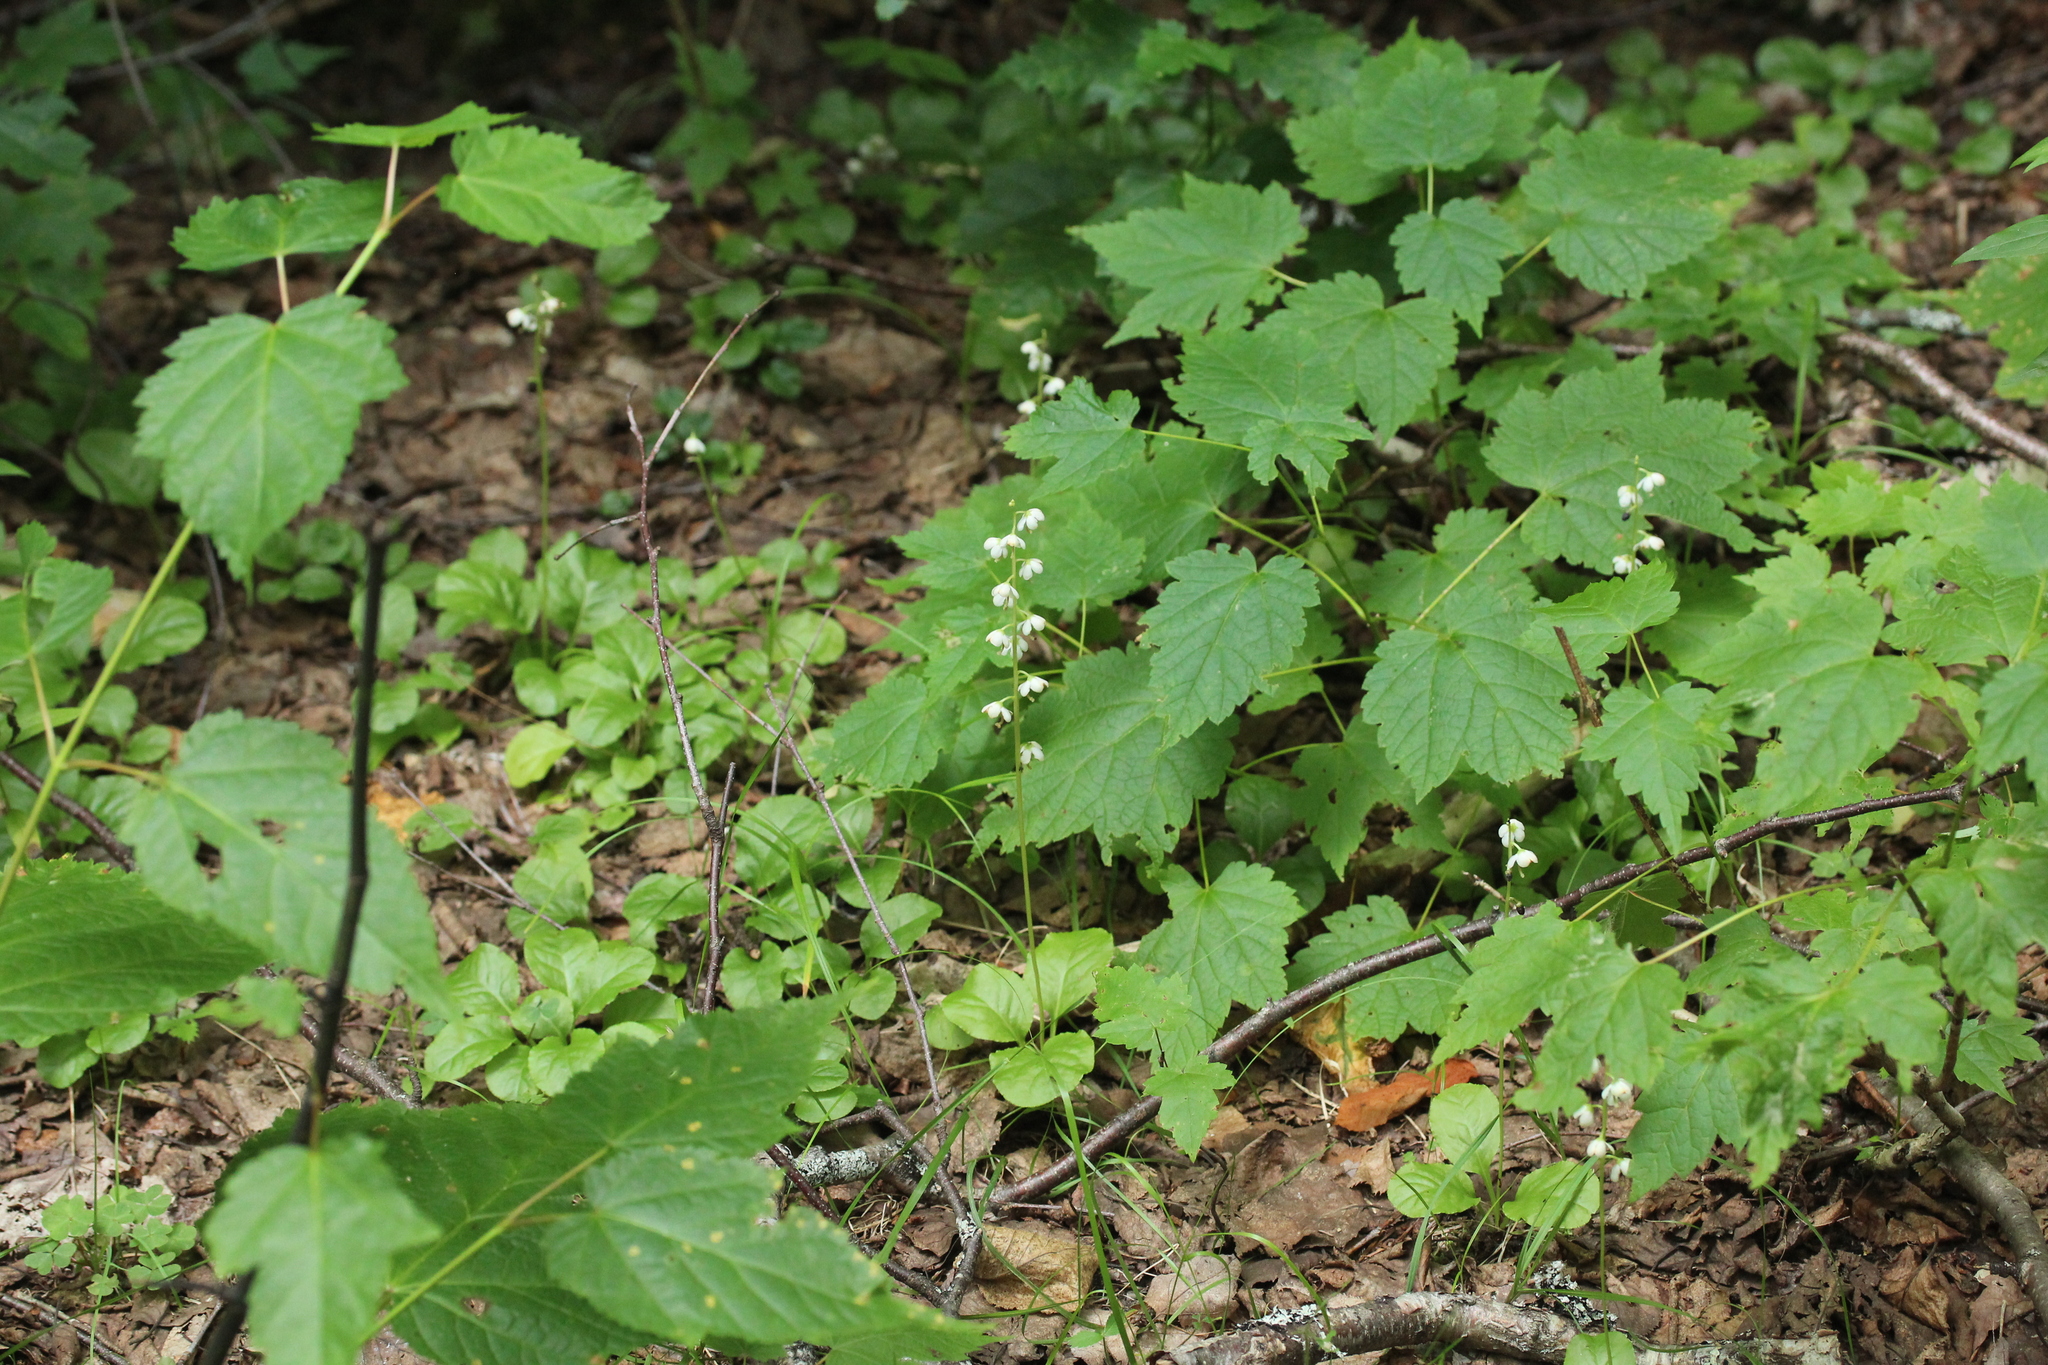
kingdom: Plantae
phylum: Tracheophyta
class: Magnoliopsida
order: Ericales
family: Ericaceae
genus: Pyrola
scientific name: Pyrola elliptica
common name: Shinleaf
